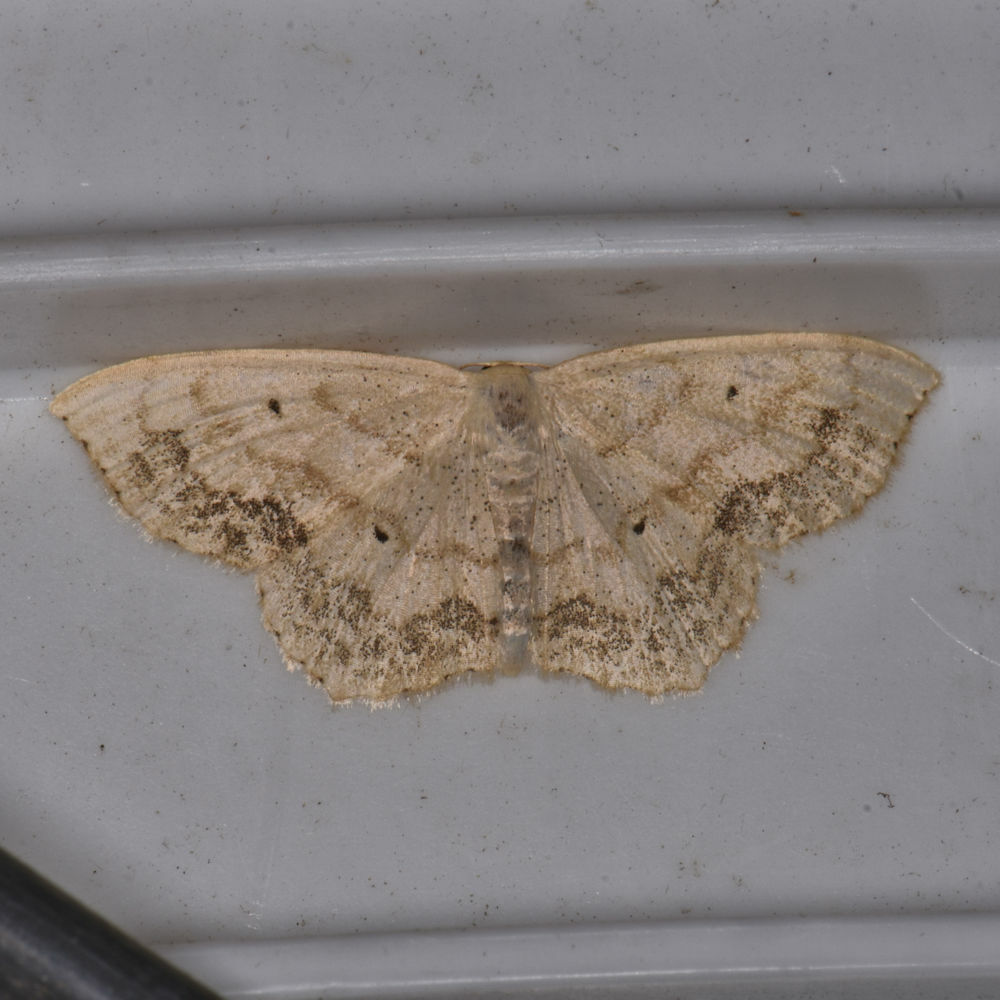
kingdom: Animalia
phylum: Arthropoda
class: Insecta
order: Lepidoptera
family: Geometridae
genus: Scopula
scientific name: Scopula limboundata
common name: Large lace border
